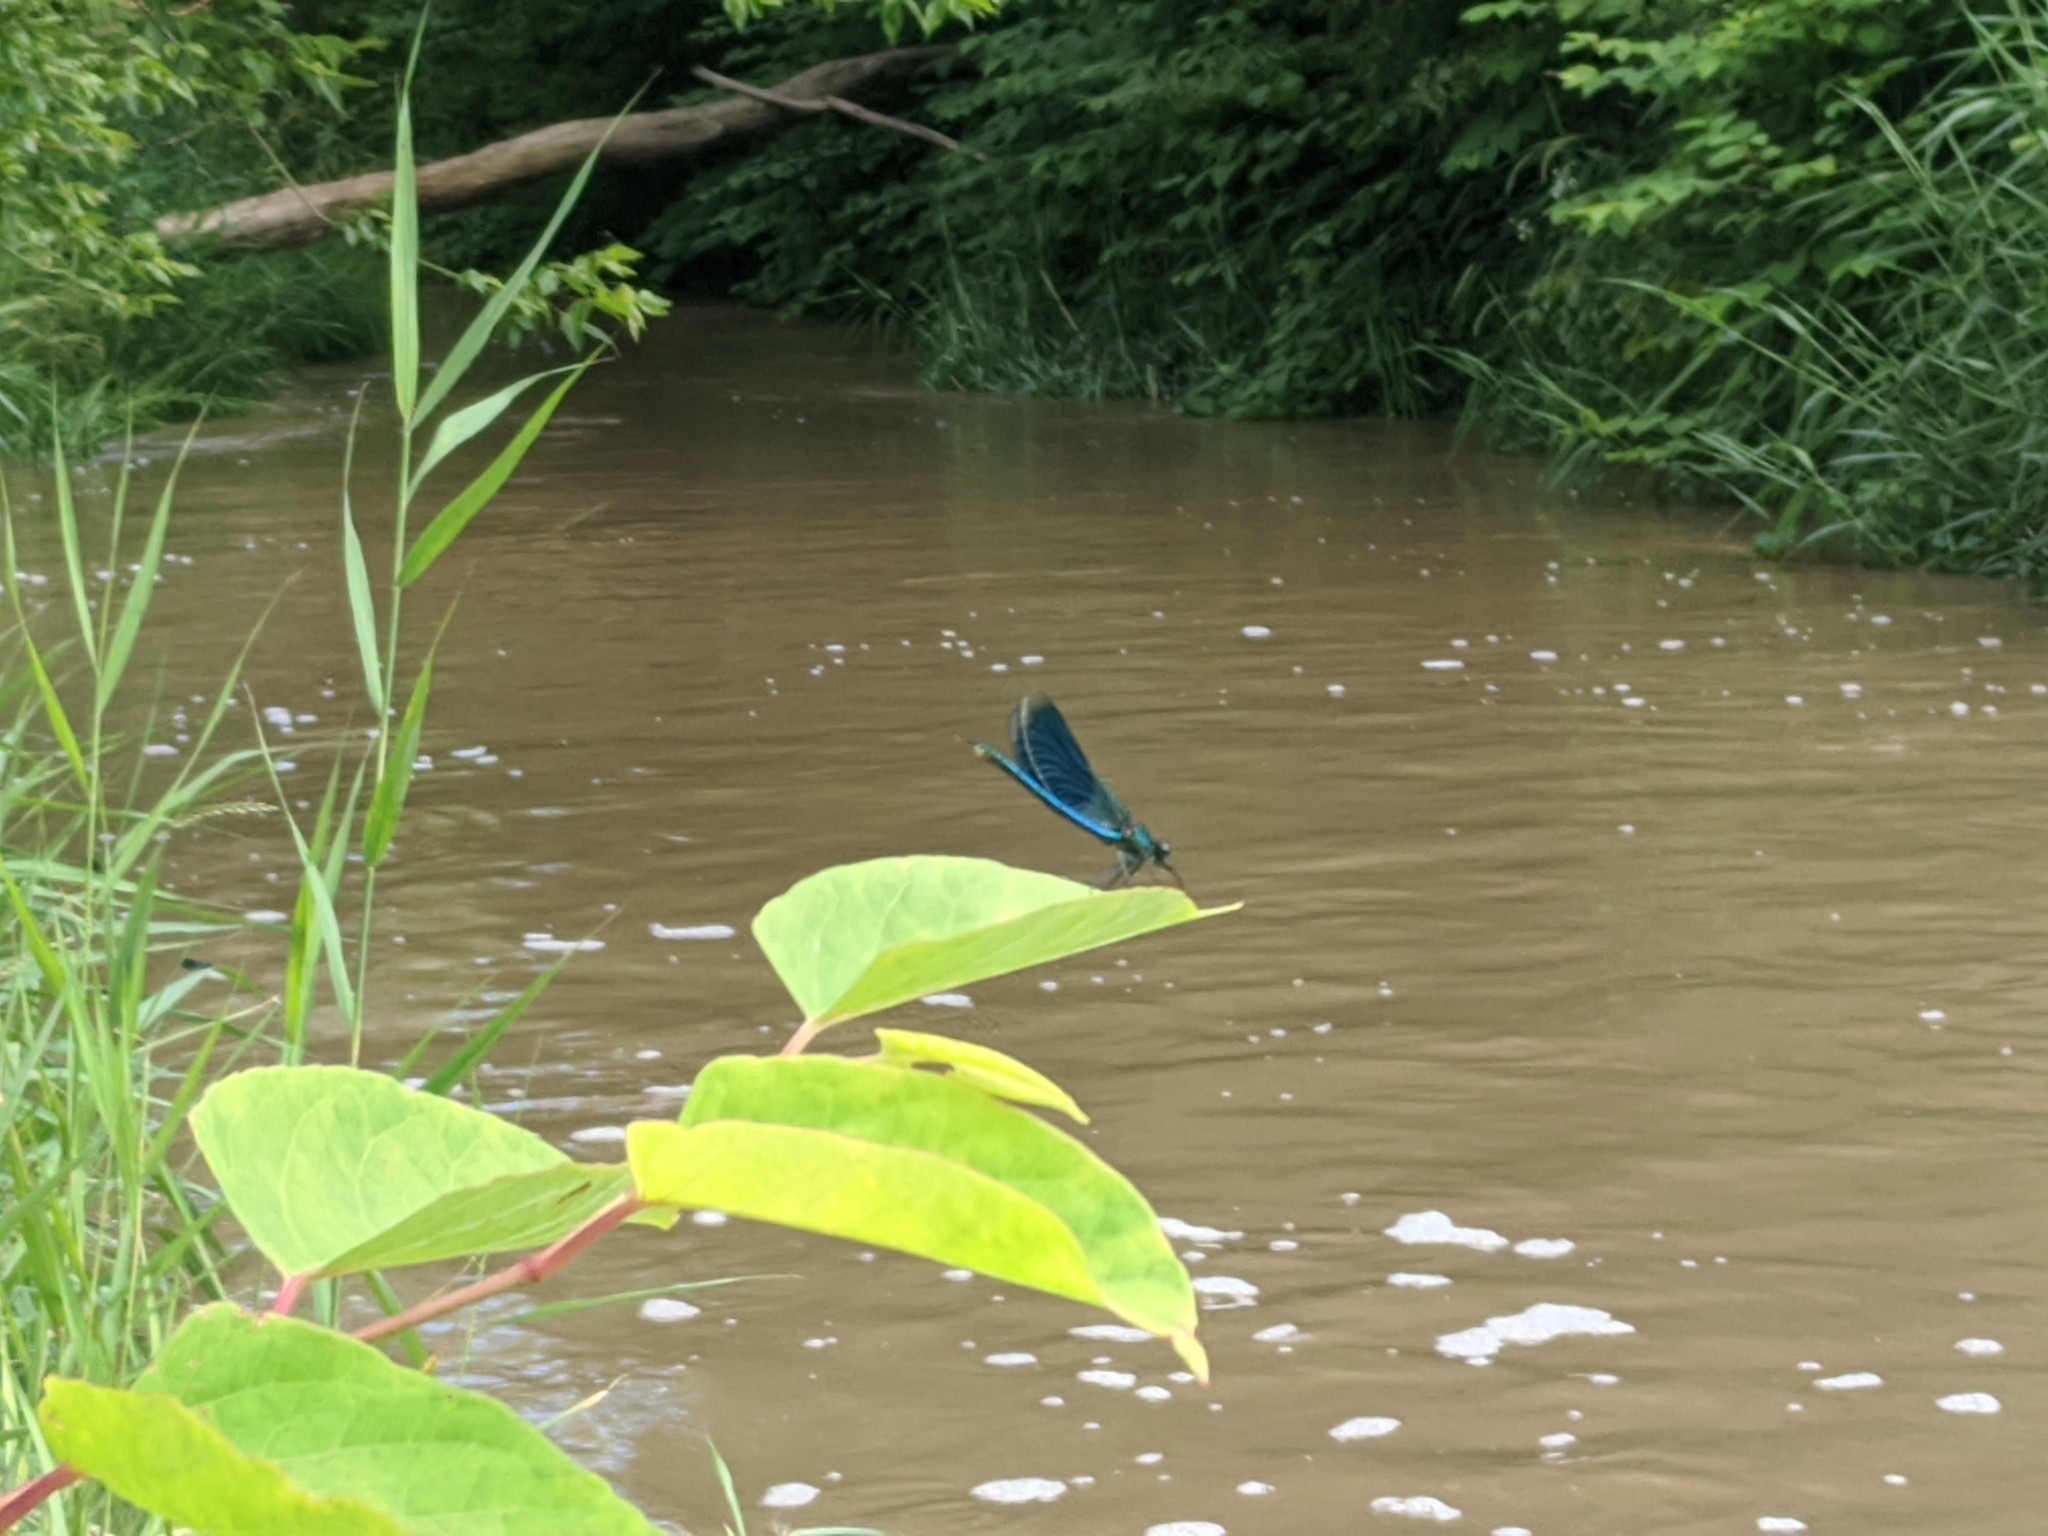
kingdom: Animalia
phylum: Arthropoda
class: Insecta
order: Odonata
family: Calopterygidae
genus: Calopteryx
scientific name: Calopteryx splendens
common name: Banded demoiselle
